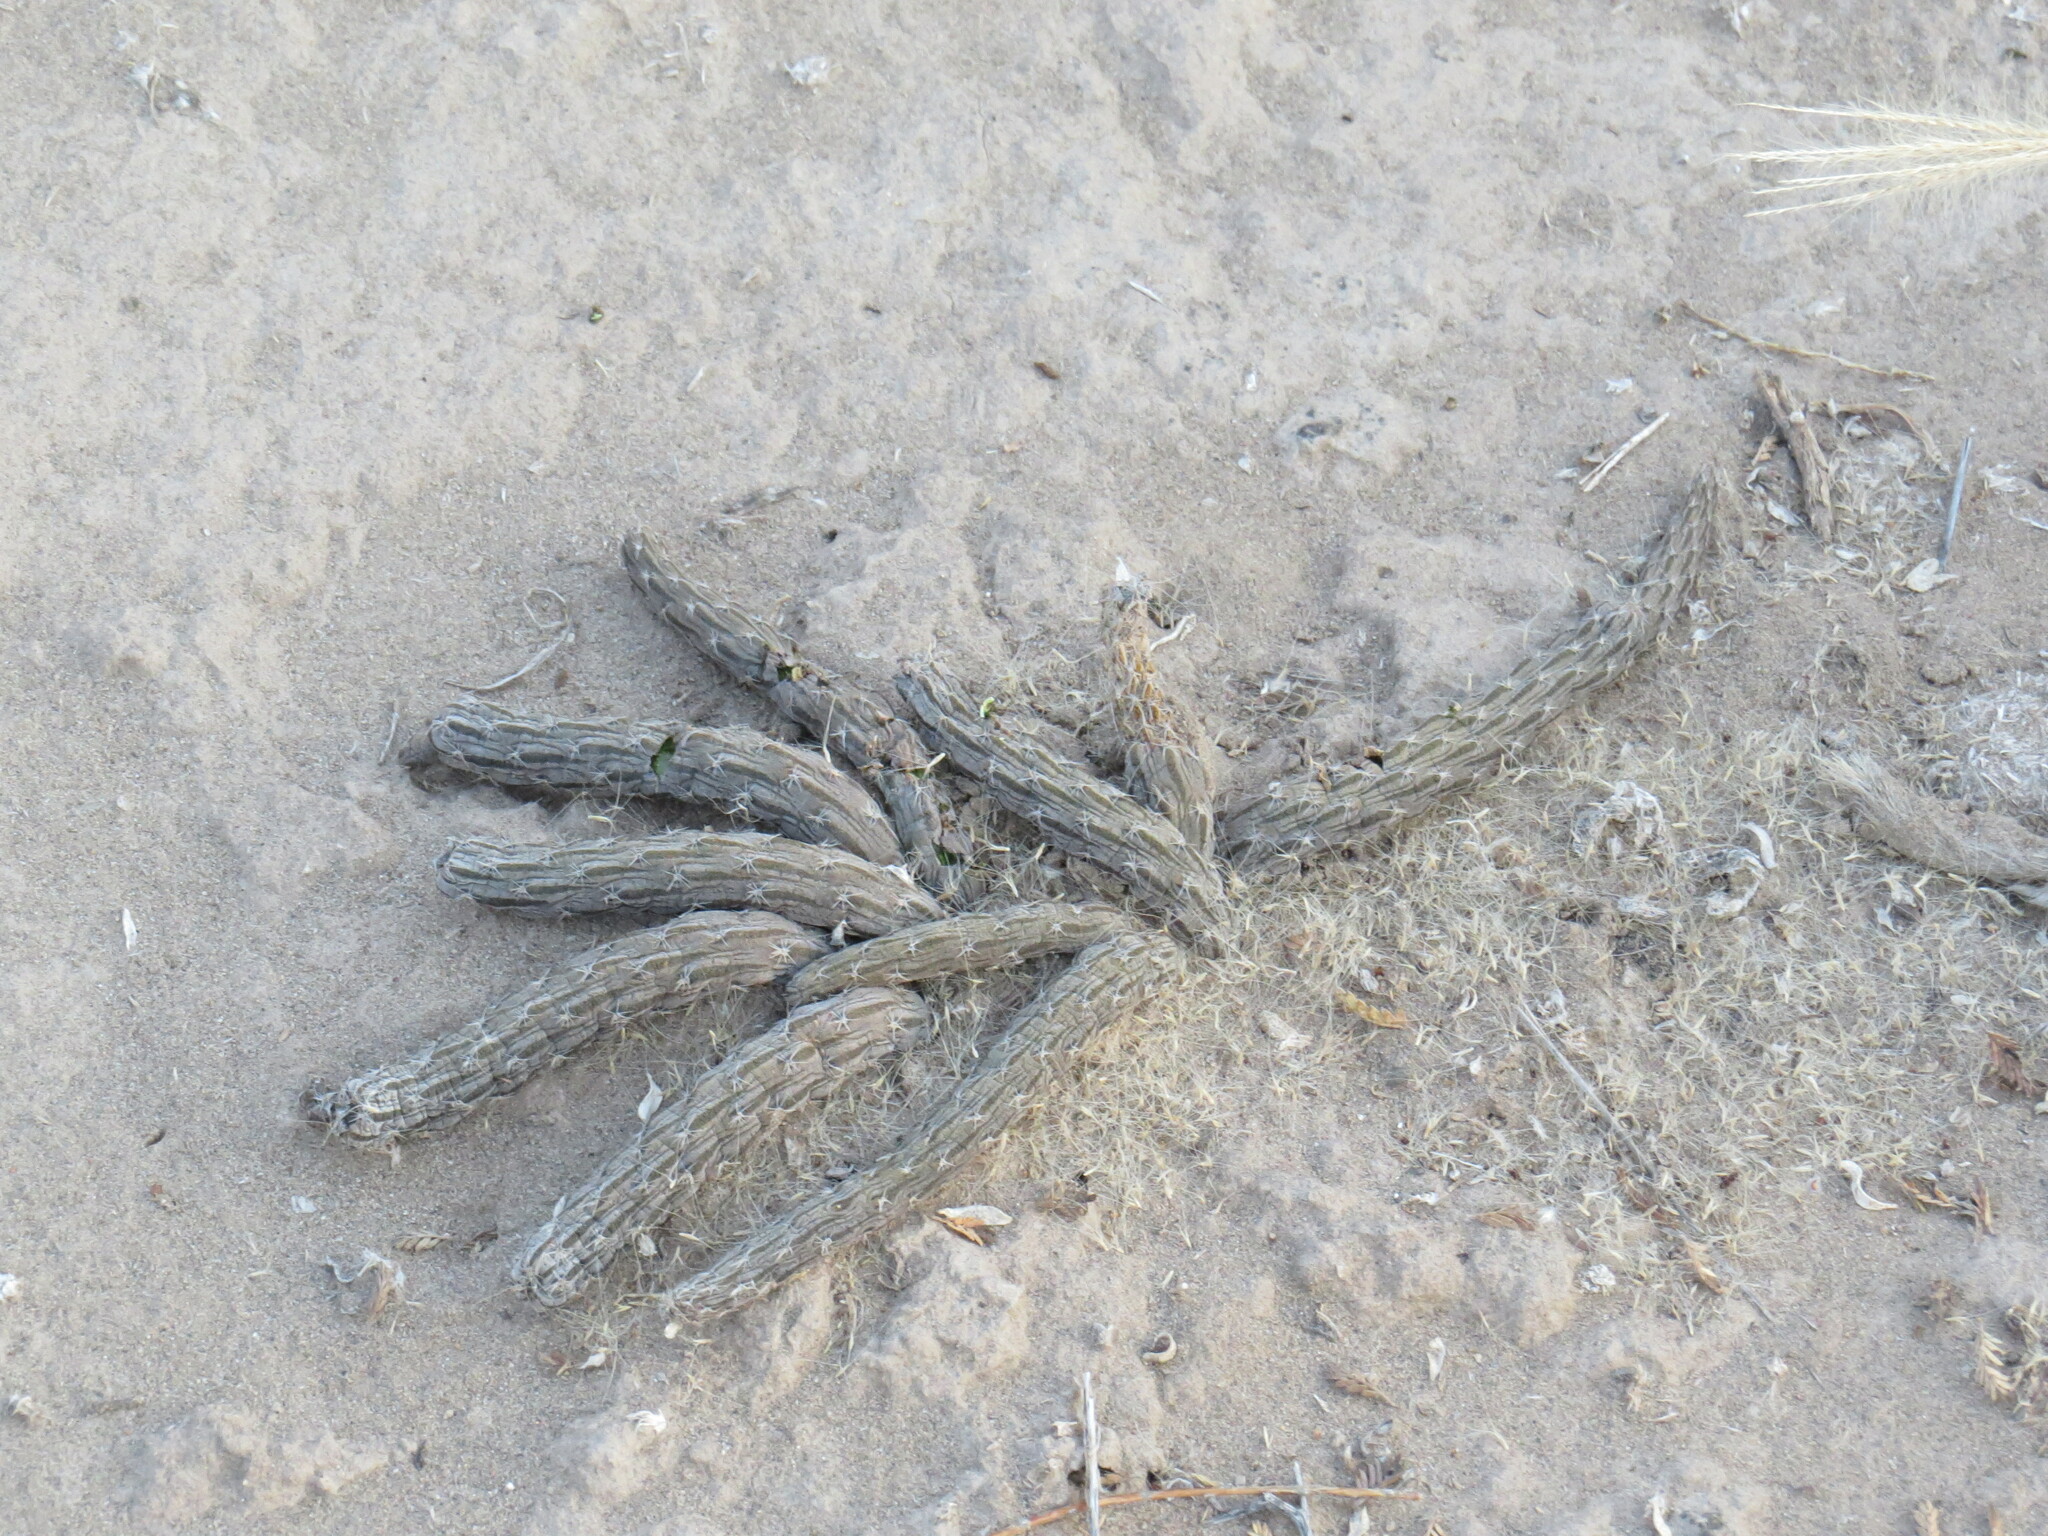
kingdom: Plantae
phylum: Tracheophyta
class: Magnoliopsida
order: Caryophyllales
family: Cactaceae
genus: Pterocactus
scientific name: Pterocactus tuberosus
